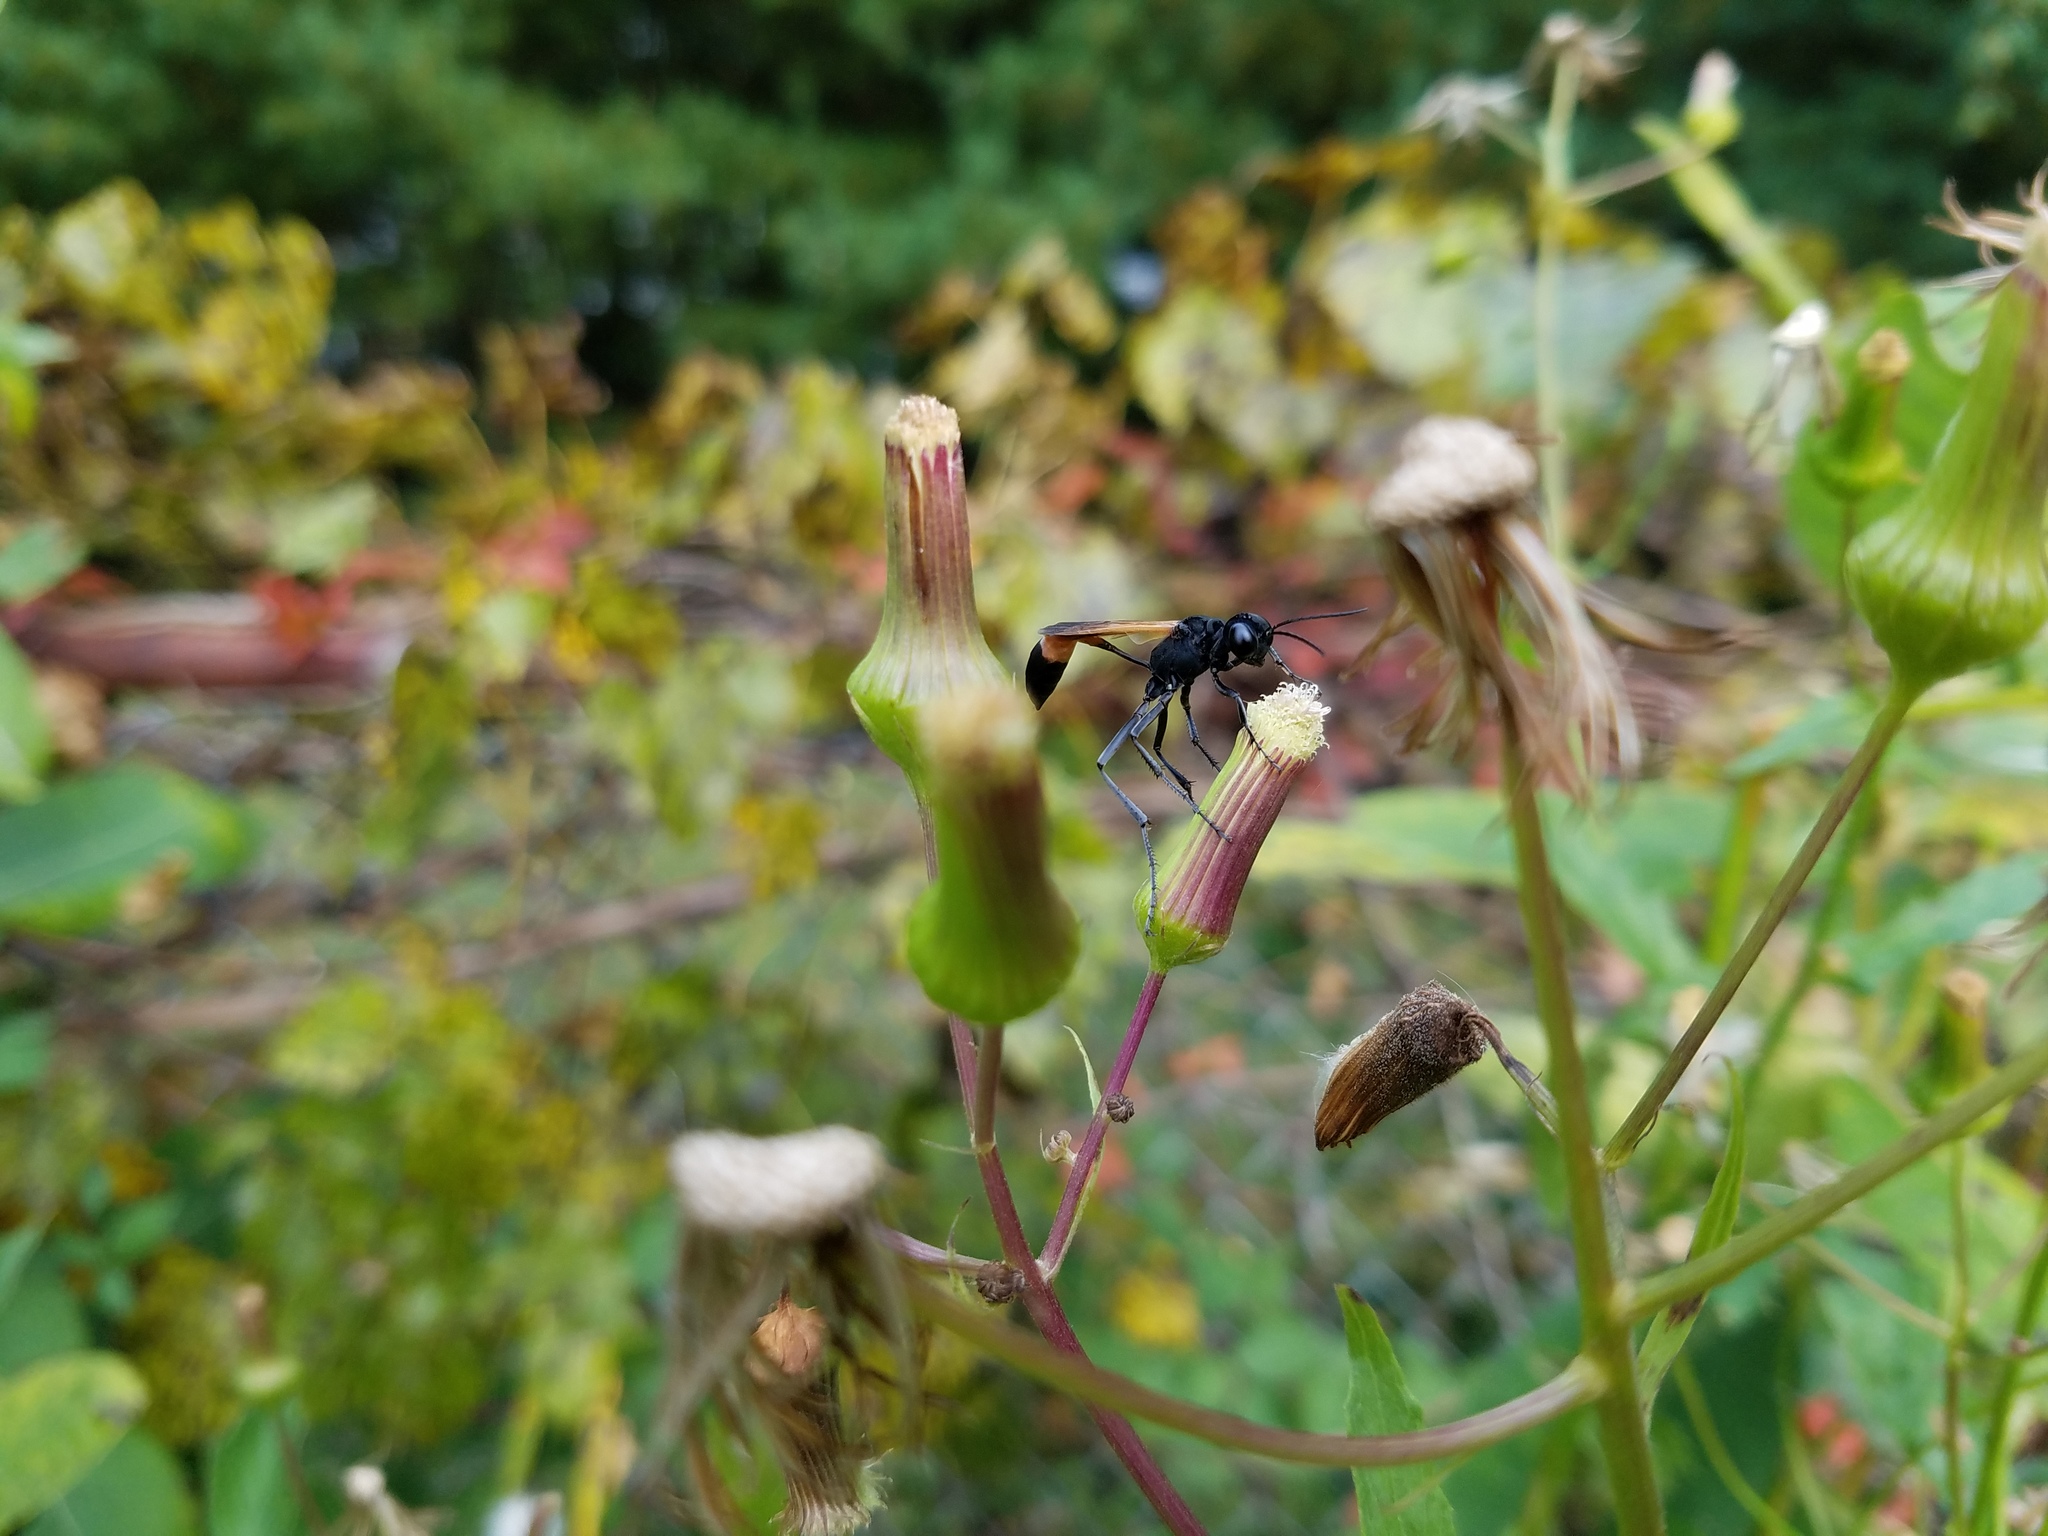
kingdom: Animalia
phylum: Arthropoda
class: Insecta
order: Hymenoptera
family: Sphecidae
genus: Ammophila
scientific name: Ammophila pictipennis
